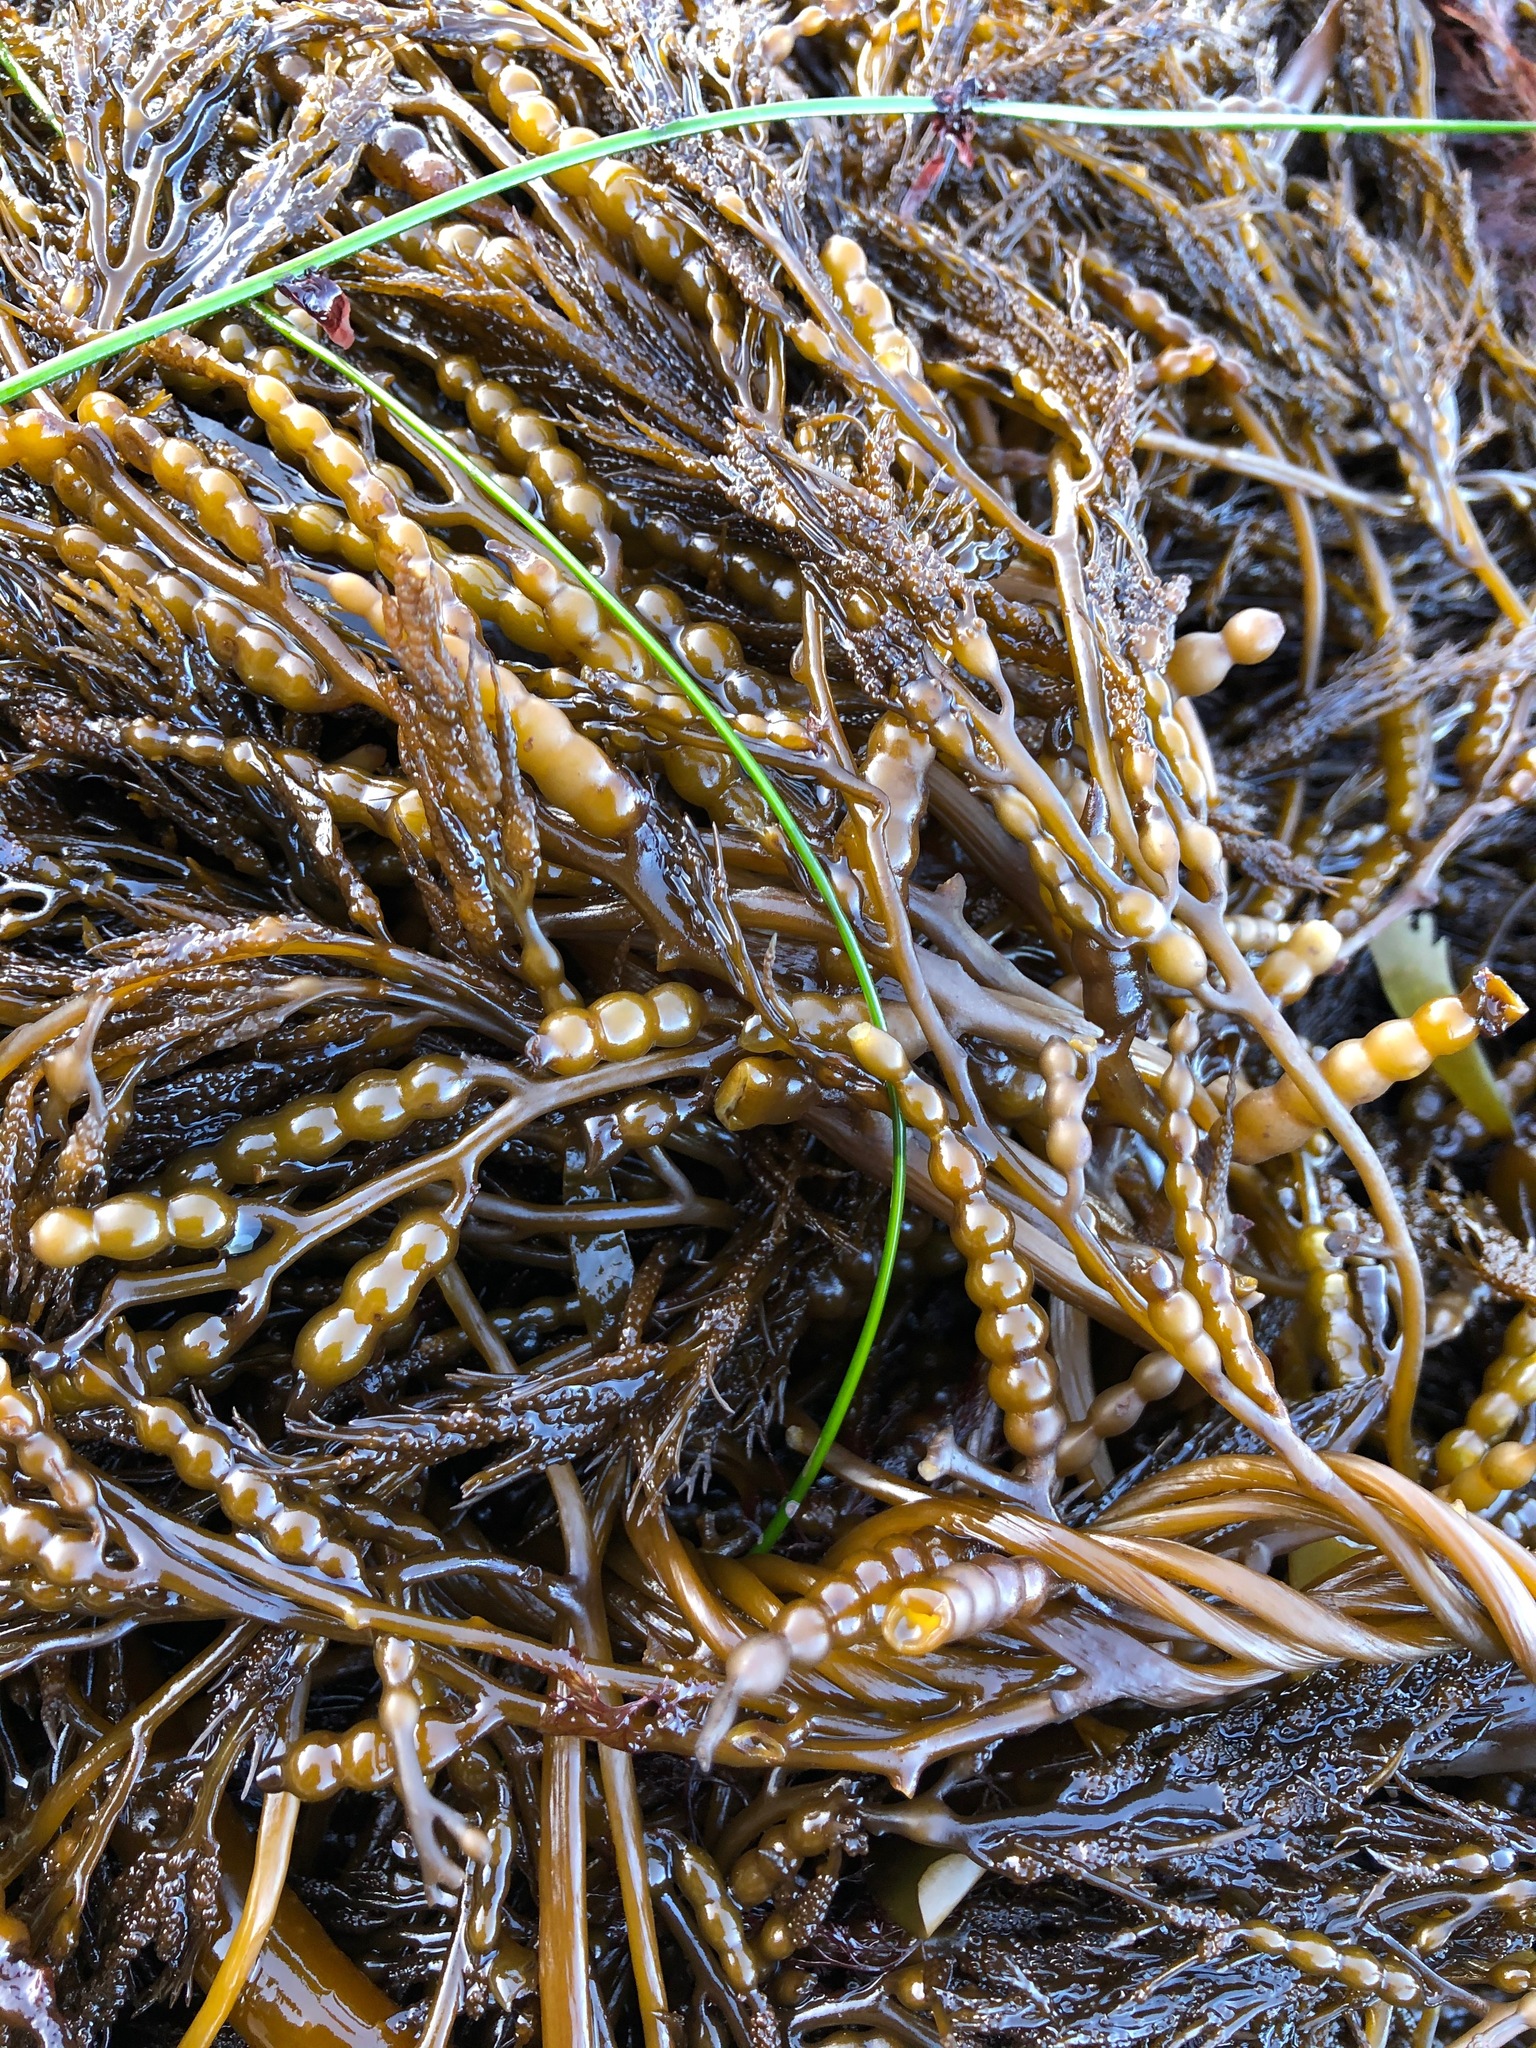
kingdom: Chromista
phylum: Ochrophyta
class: Phaeophyceae
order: Fucales
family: Sargassaceae
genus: Stephanocystis
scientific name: Stephanocystis
